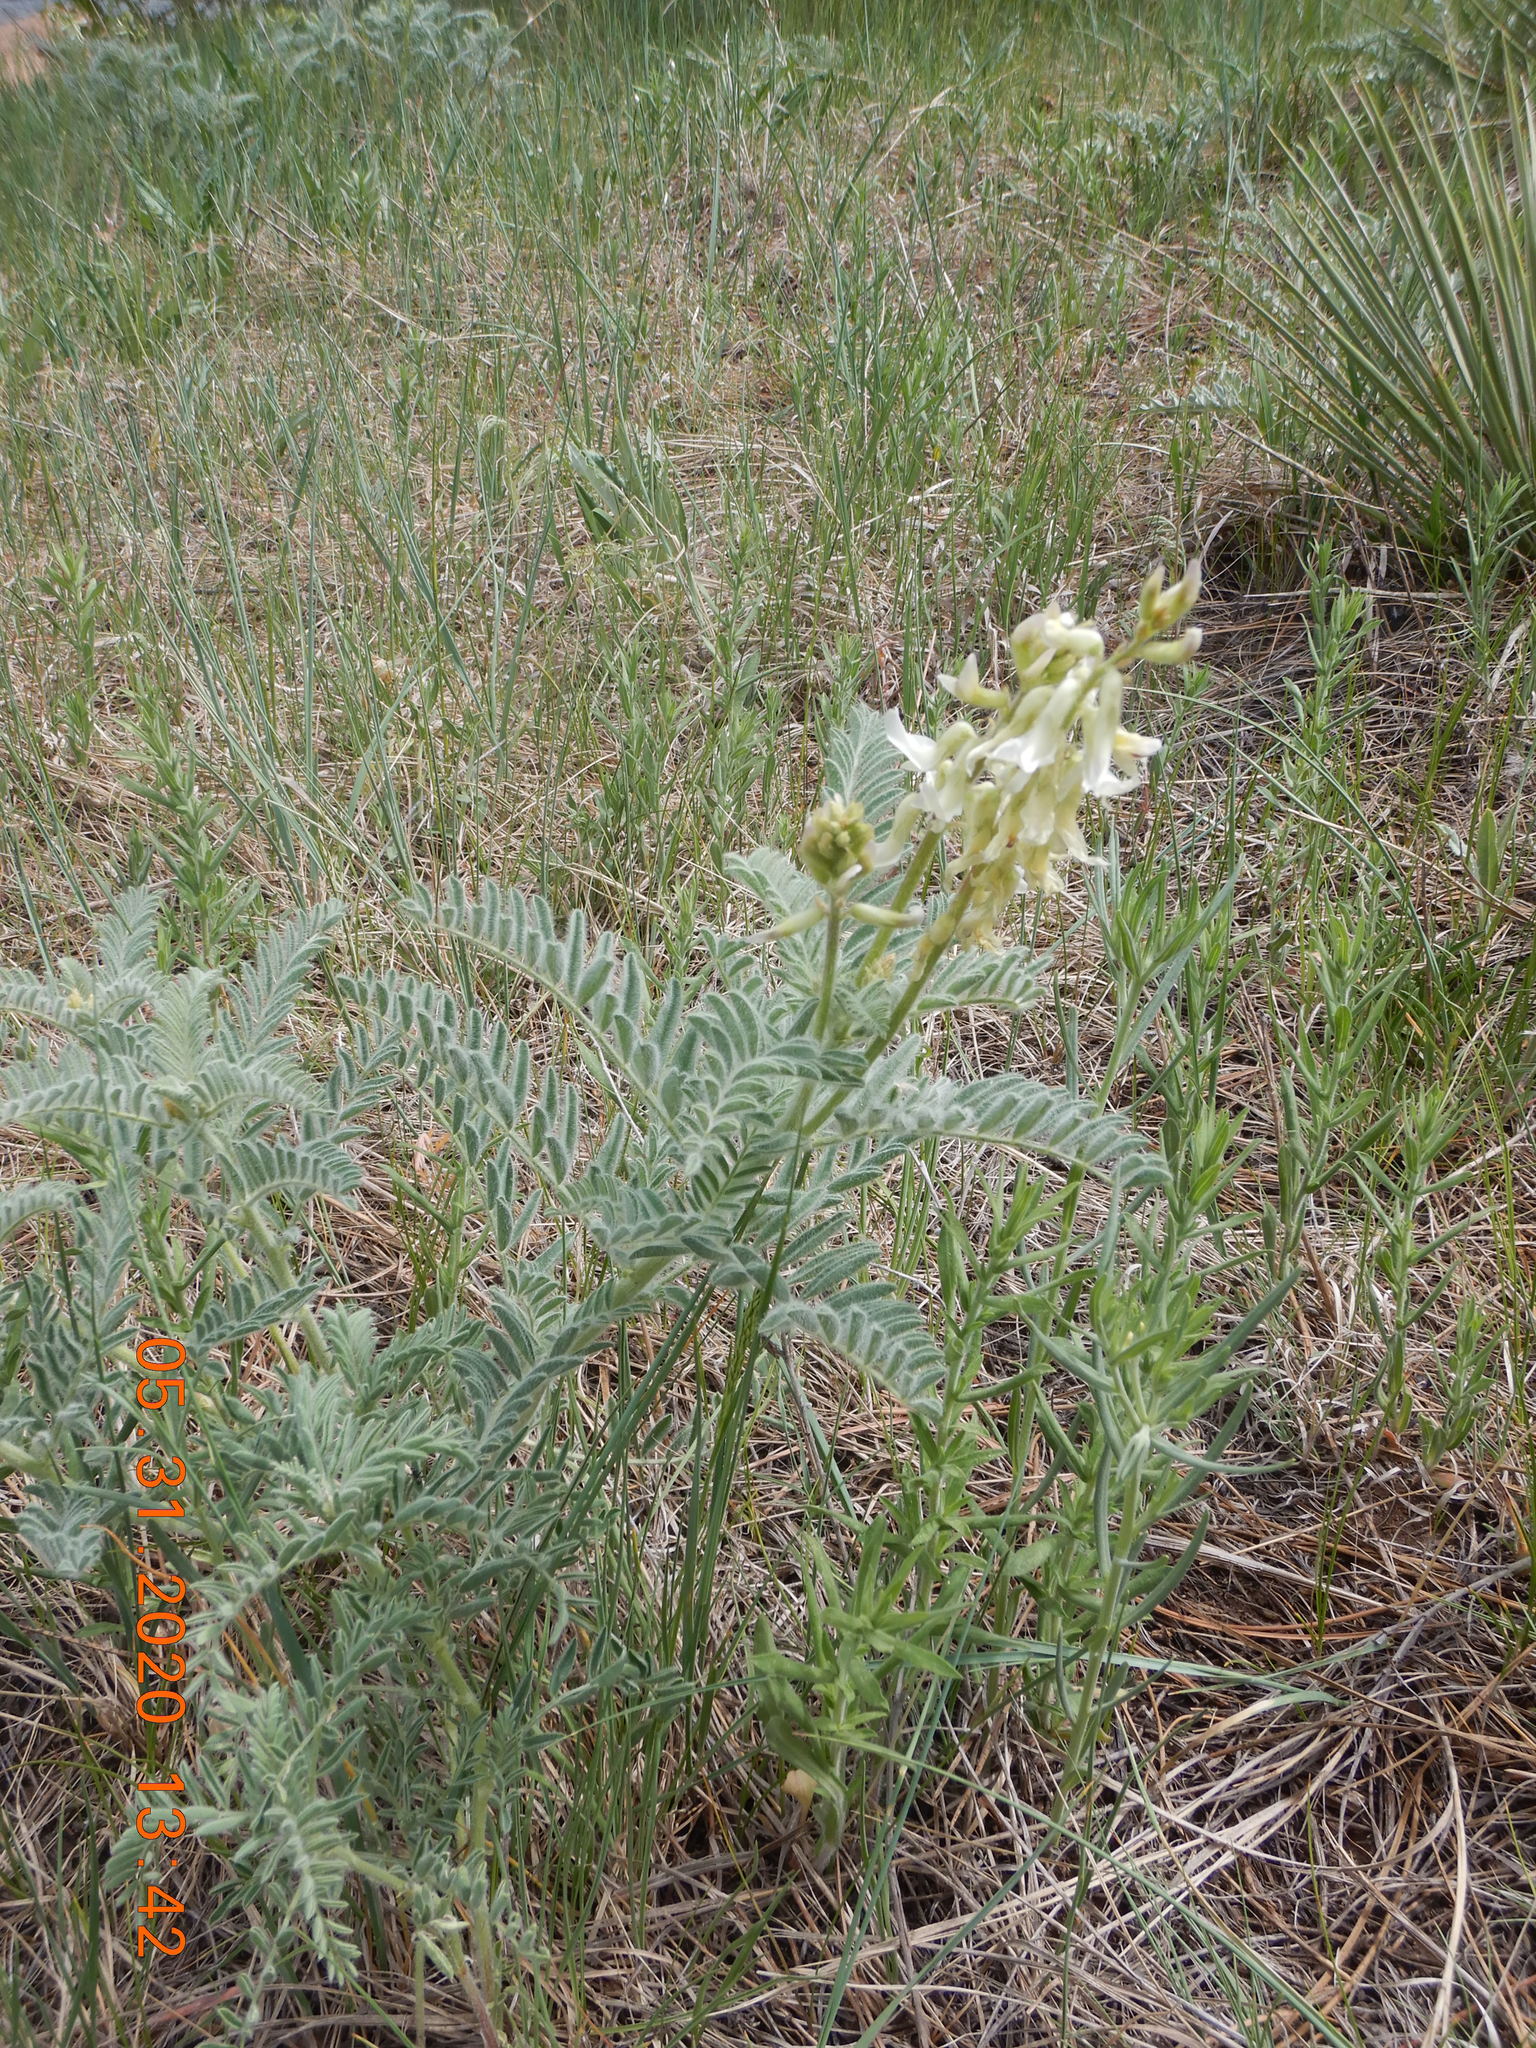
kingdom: Plantae
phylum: Tracheophyta
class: Magnoliopsida
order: Fabales
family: Fabaceae
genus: Astragalus
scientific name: Astragalus drummondii
